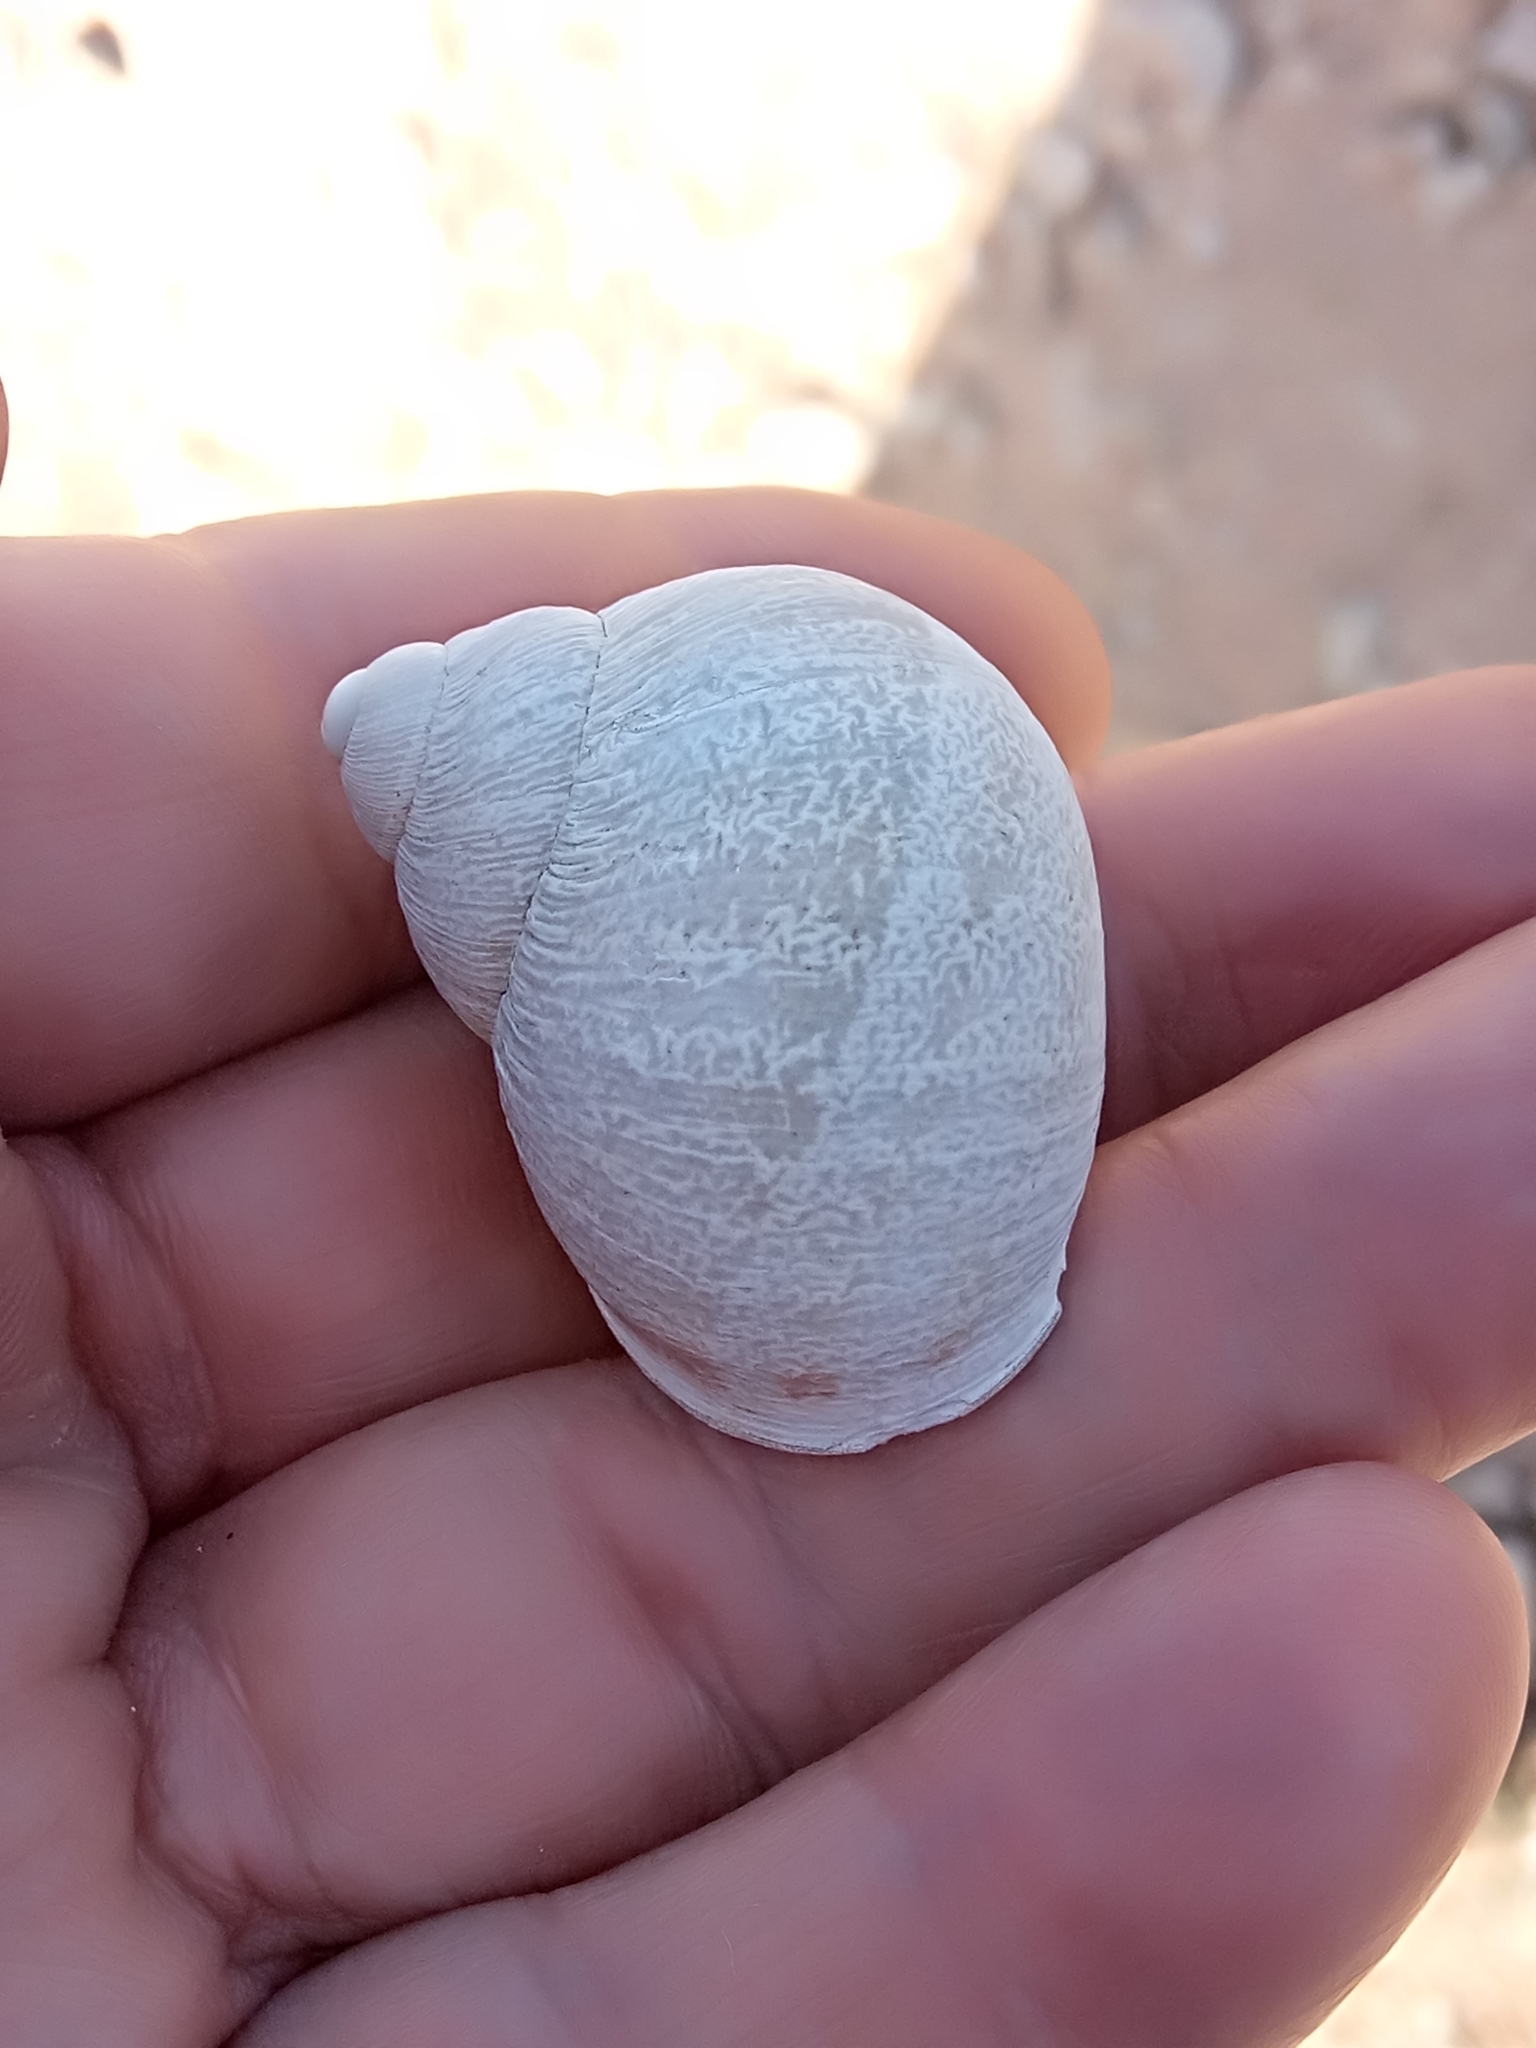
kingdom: Animalia
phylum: Mollusca
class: Gastropoda
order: Stylommatophora
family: Helicidae
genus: Cornu
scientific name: Cornu aspersum
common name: Brown garden snail
